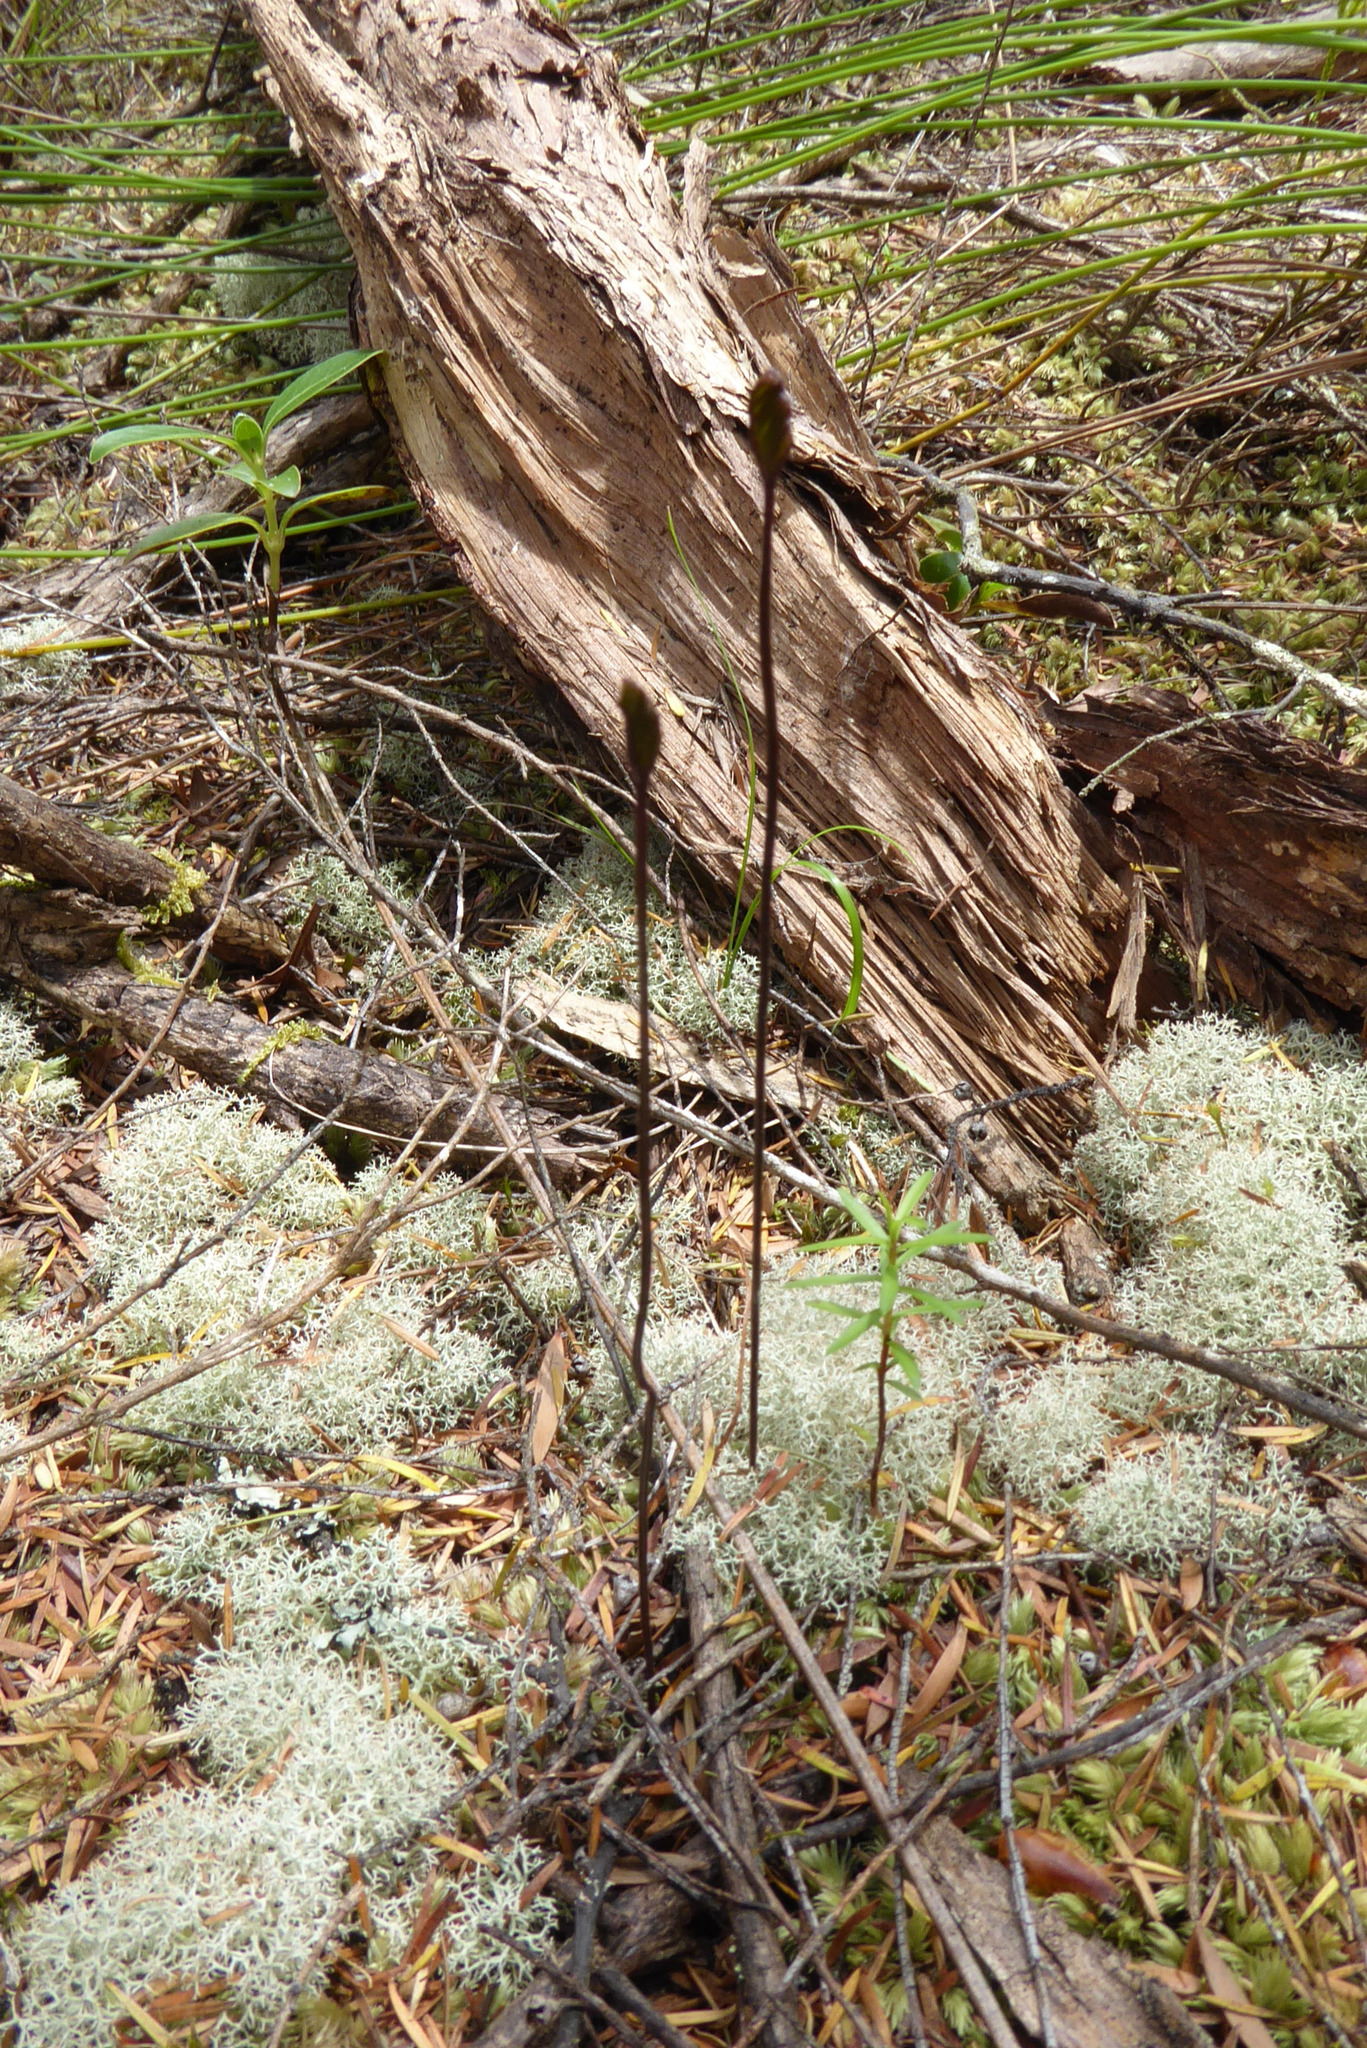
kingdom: Plantae
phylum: Tracheophyta
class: Polypodiopsida
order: Schizaeales
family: Schizaeaceae
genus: Schizaea
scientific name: Schizaea bifida
